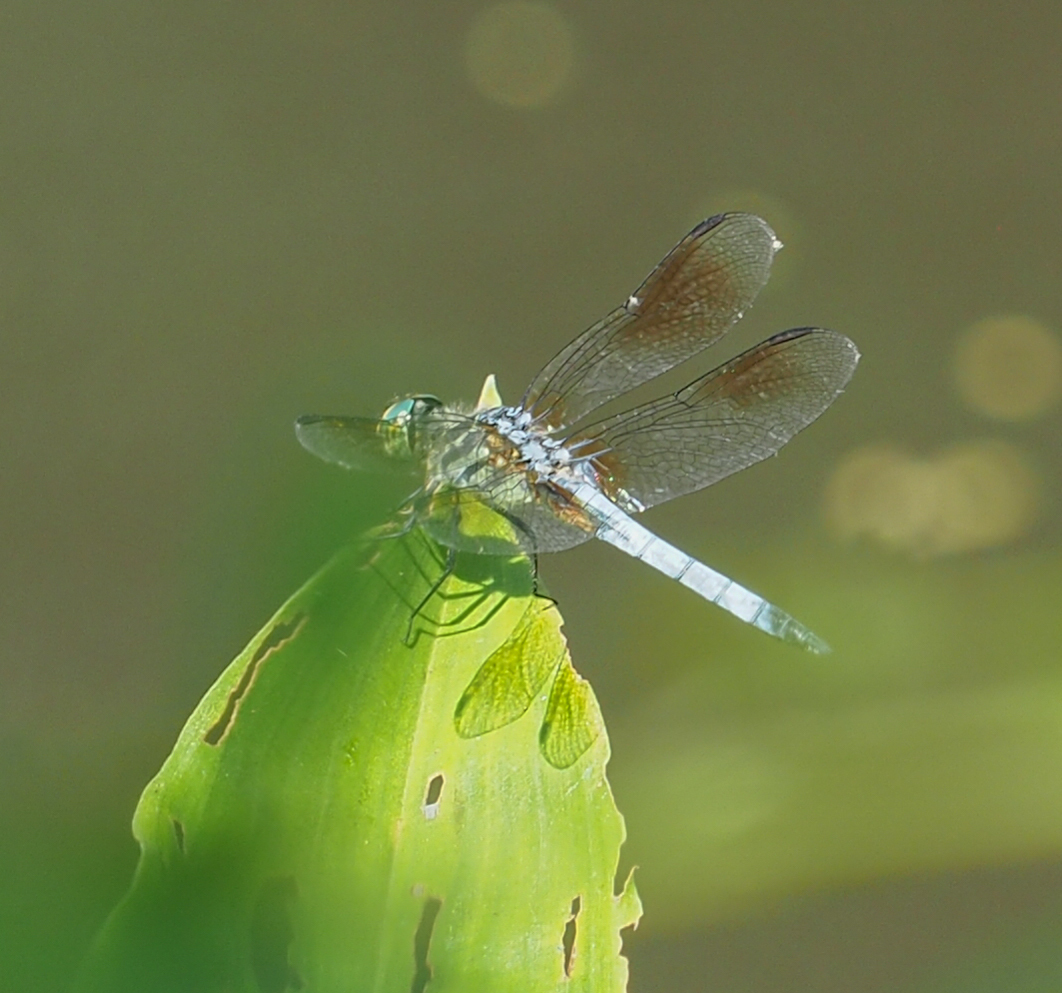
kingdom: Animalia
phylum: Arthropoda
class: Insecta
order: Odonata
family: Libellulidae
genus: Pachydiplax
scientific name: Pachydiplax longipennis
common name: Blue dasher
